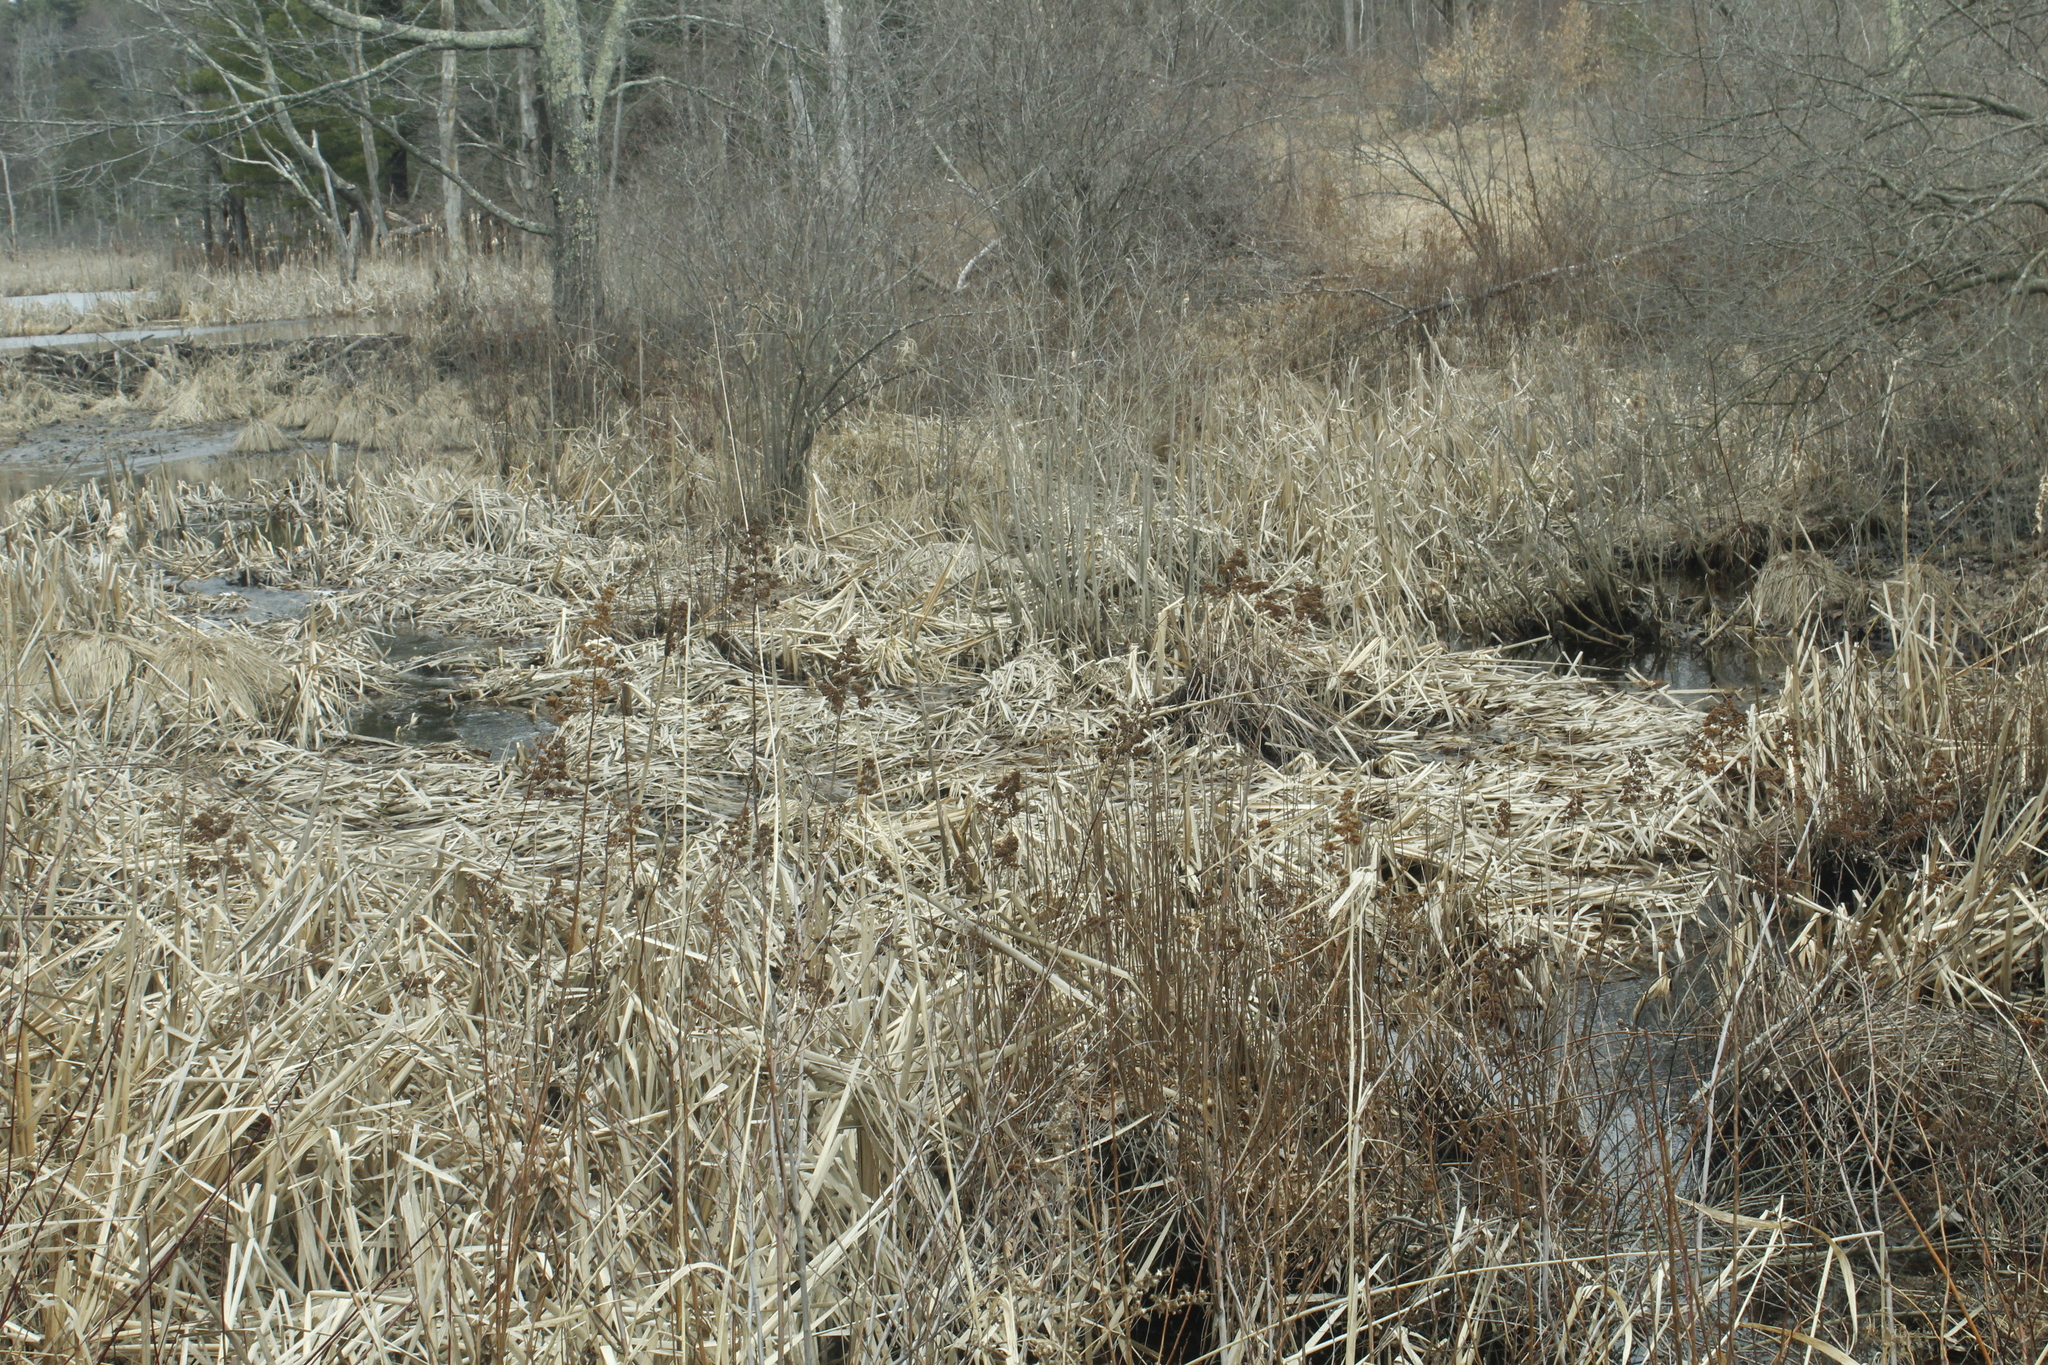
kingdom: Plantae
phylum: Tracheophyta
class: Magnoliopsida
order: Rosales
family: Rosaceae
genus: Spiraea
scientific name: Spiraea alba
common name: Pale bridewort
